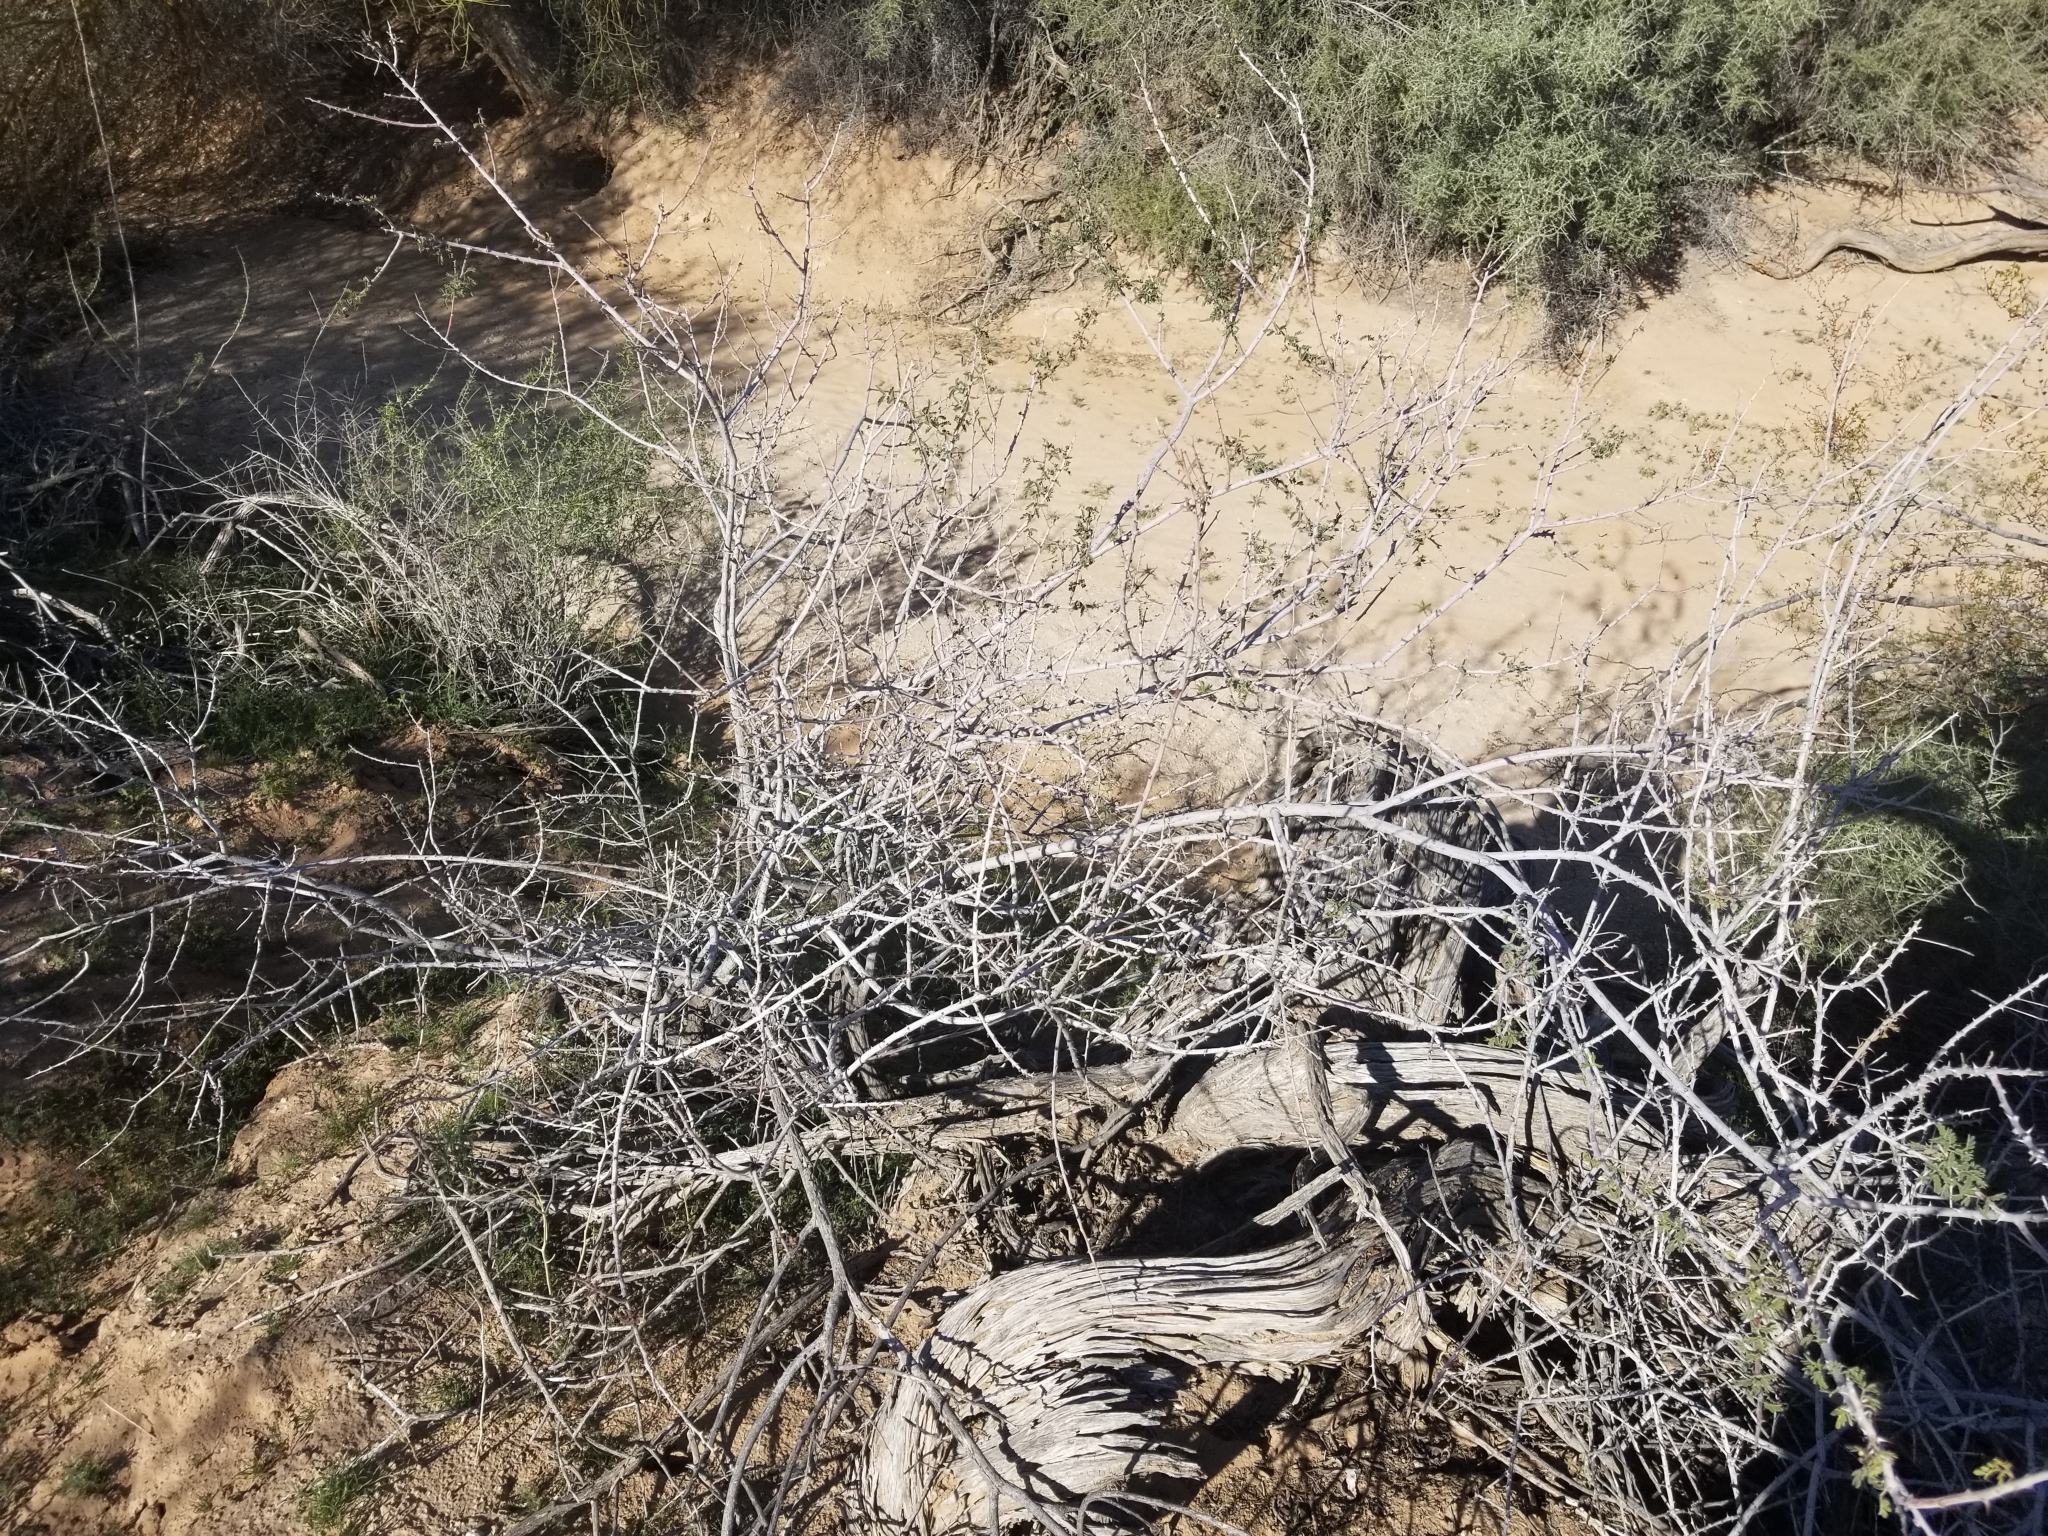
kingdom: Plantae
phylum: Tracheophyta
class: Magnoliopsida
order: Fabales
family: Fabaceae
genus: Senegalia
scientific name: Senegalia greggii
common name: Texas-mimosa
